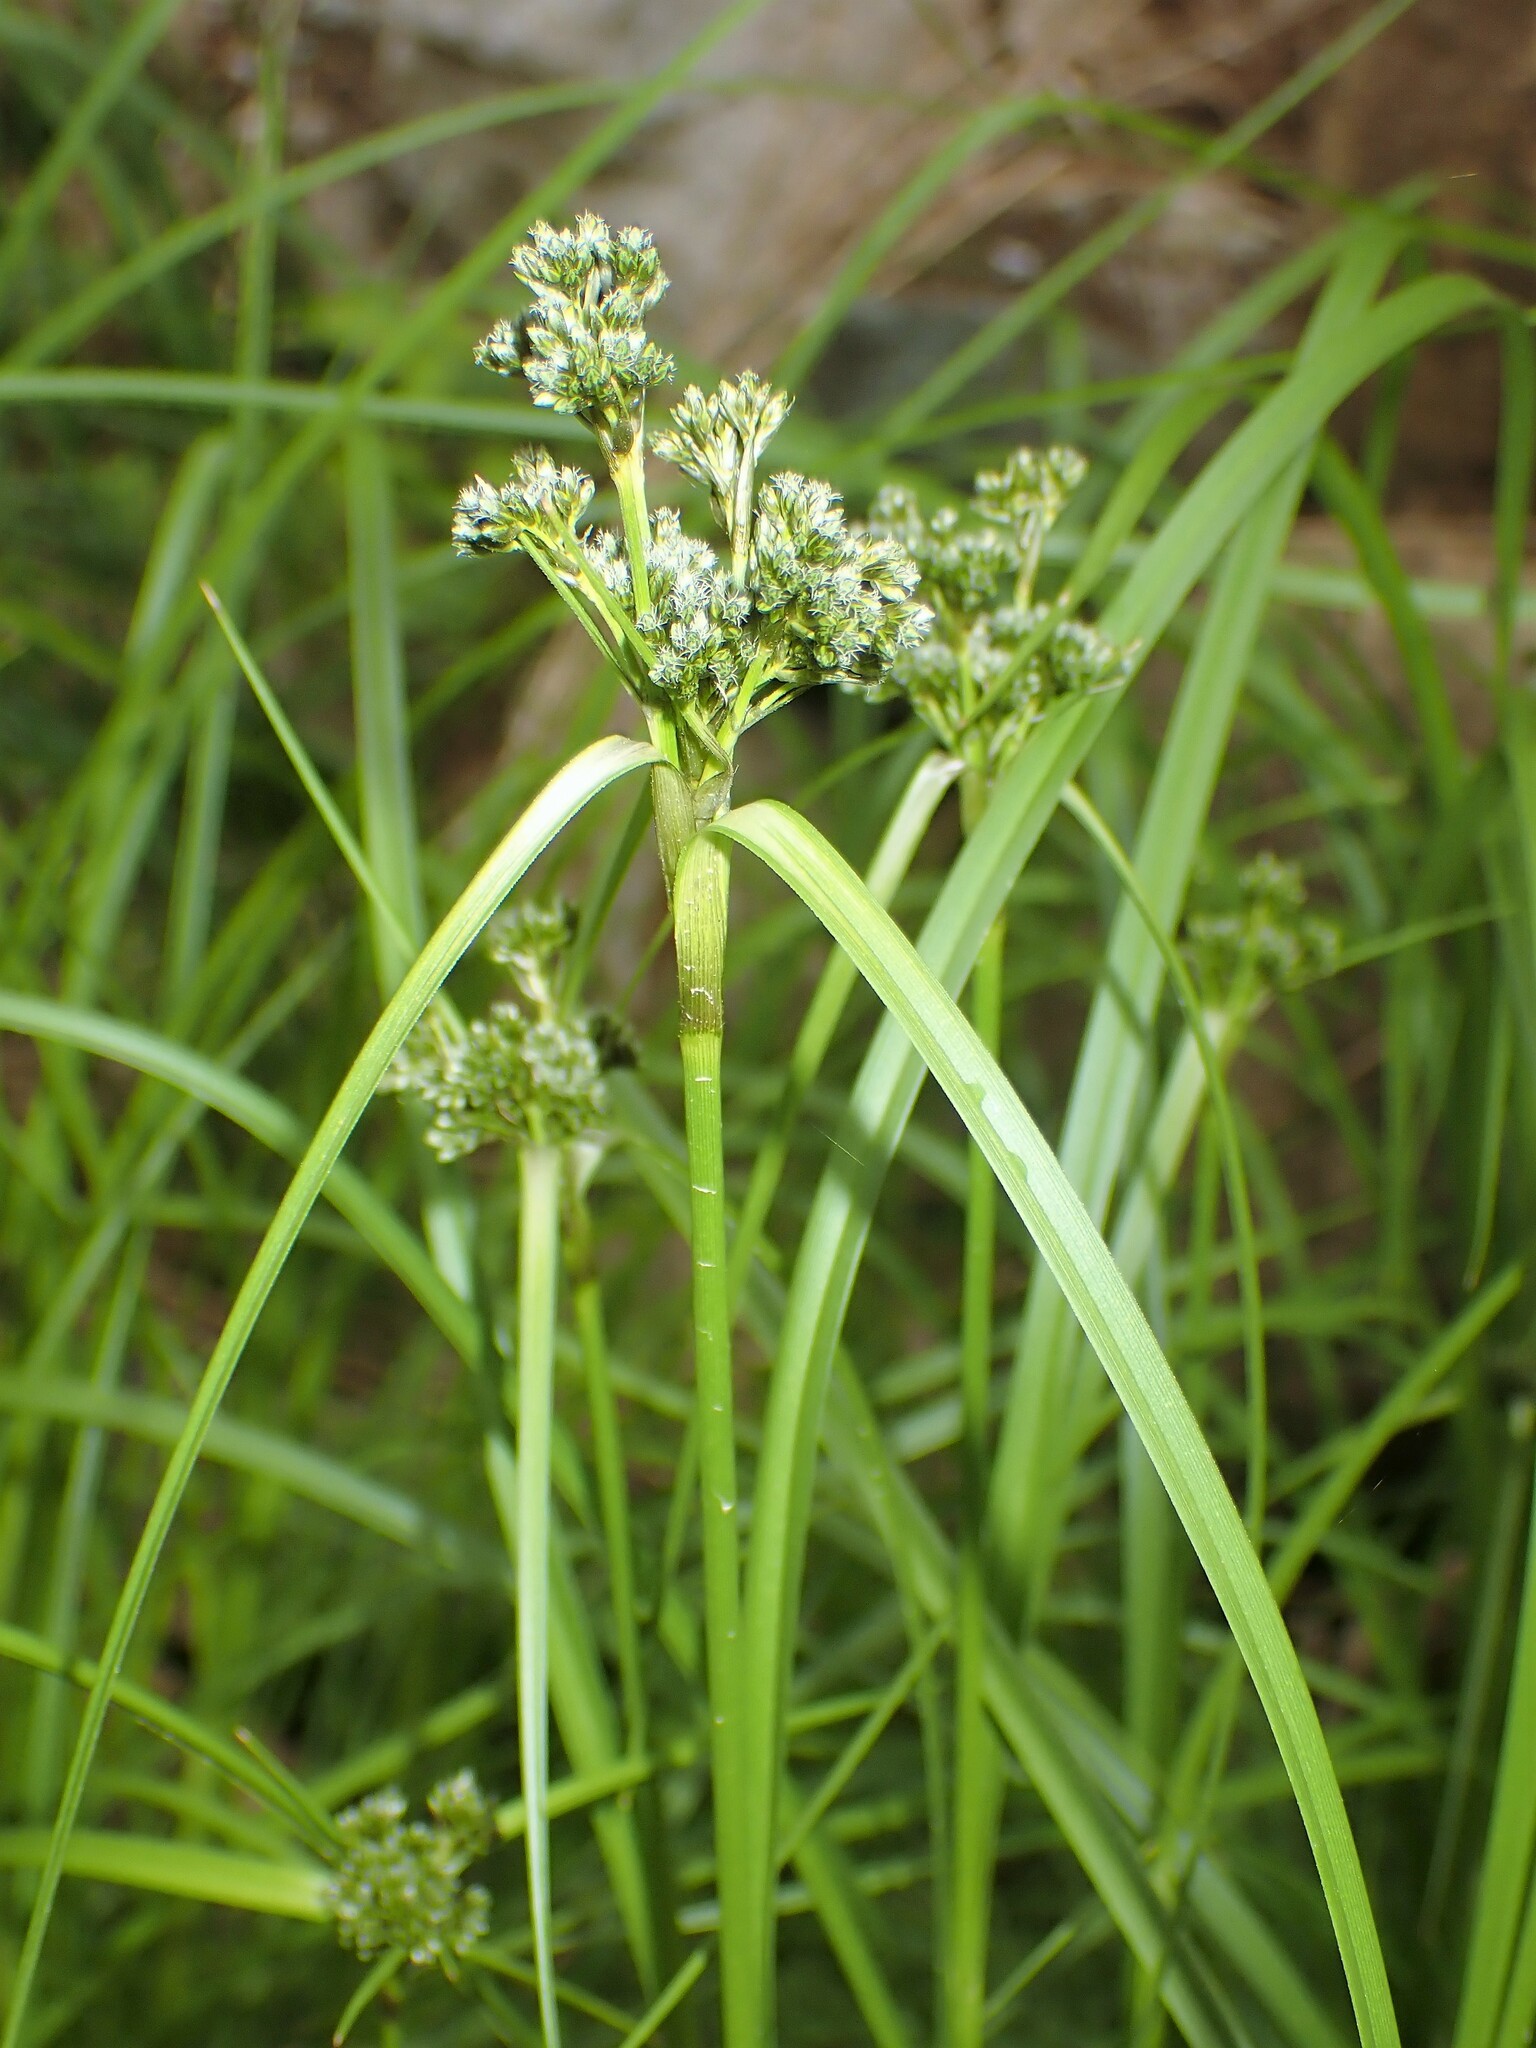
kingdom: Plantae
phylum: Tracheophyta
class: Liliopsida
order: Poales
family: Cyperaceae
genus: Scirpus
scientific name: Scirpus cyperinus
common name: Black-sheathed bulrush
